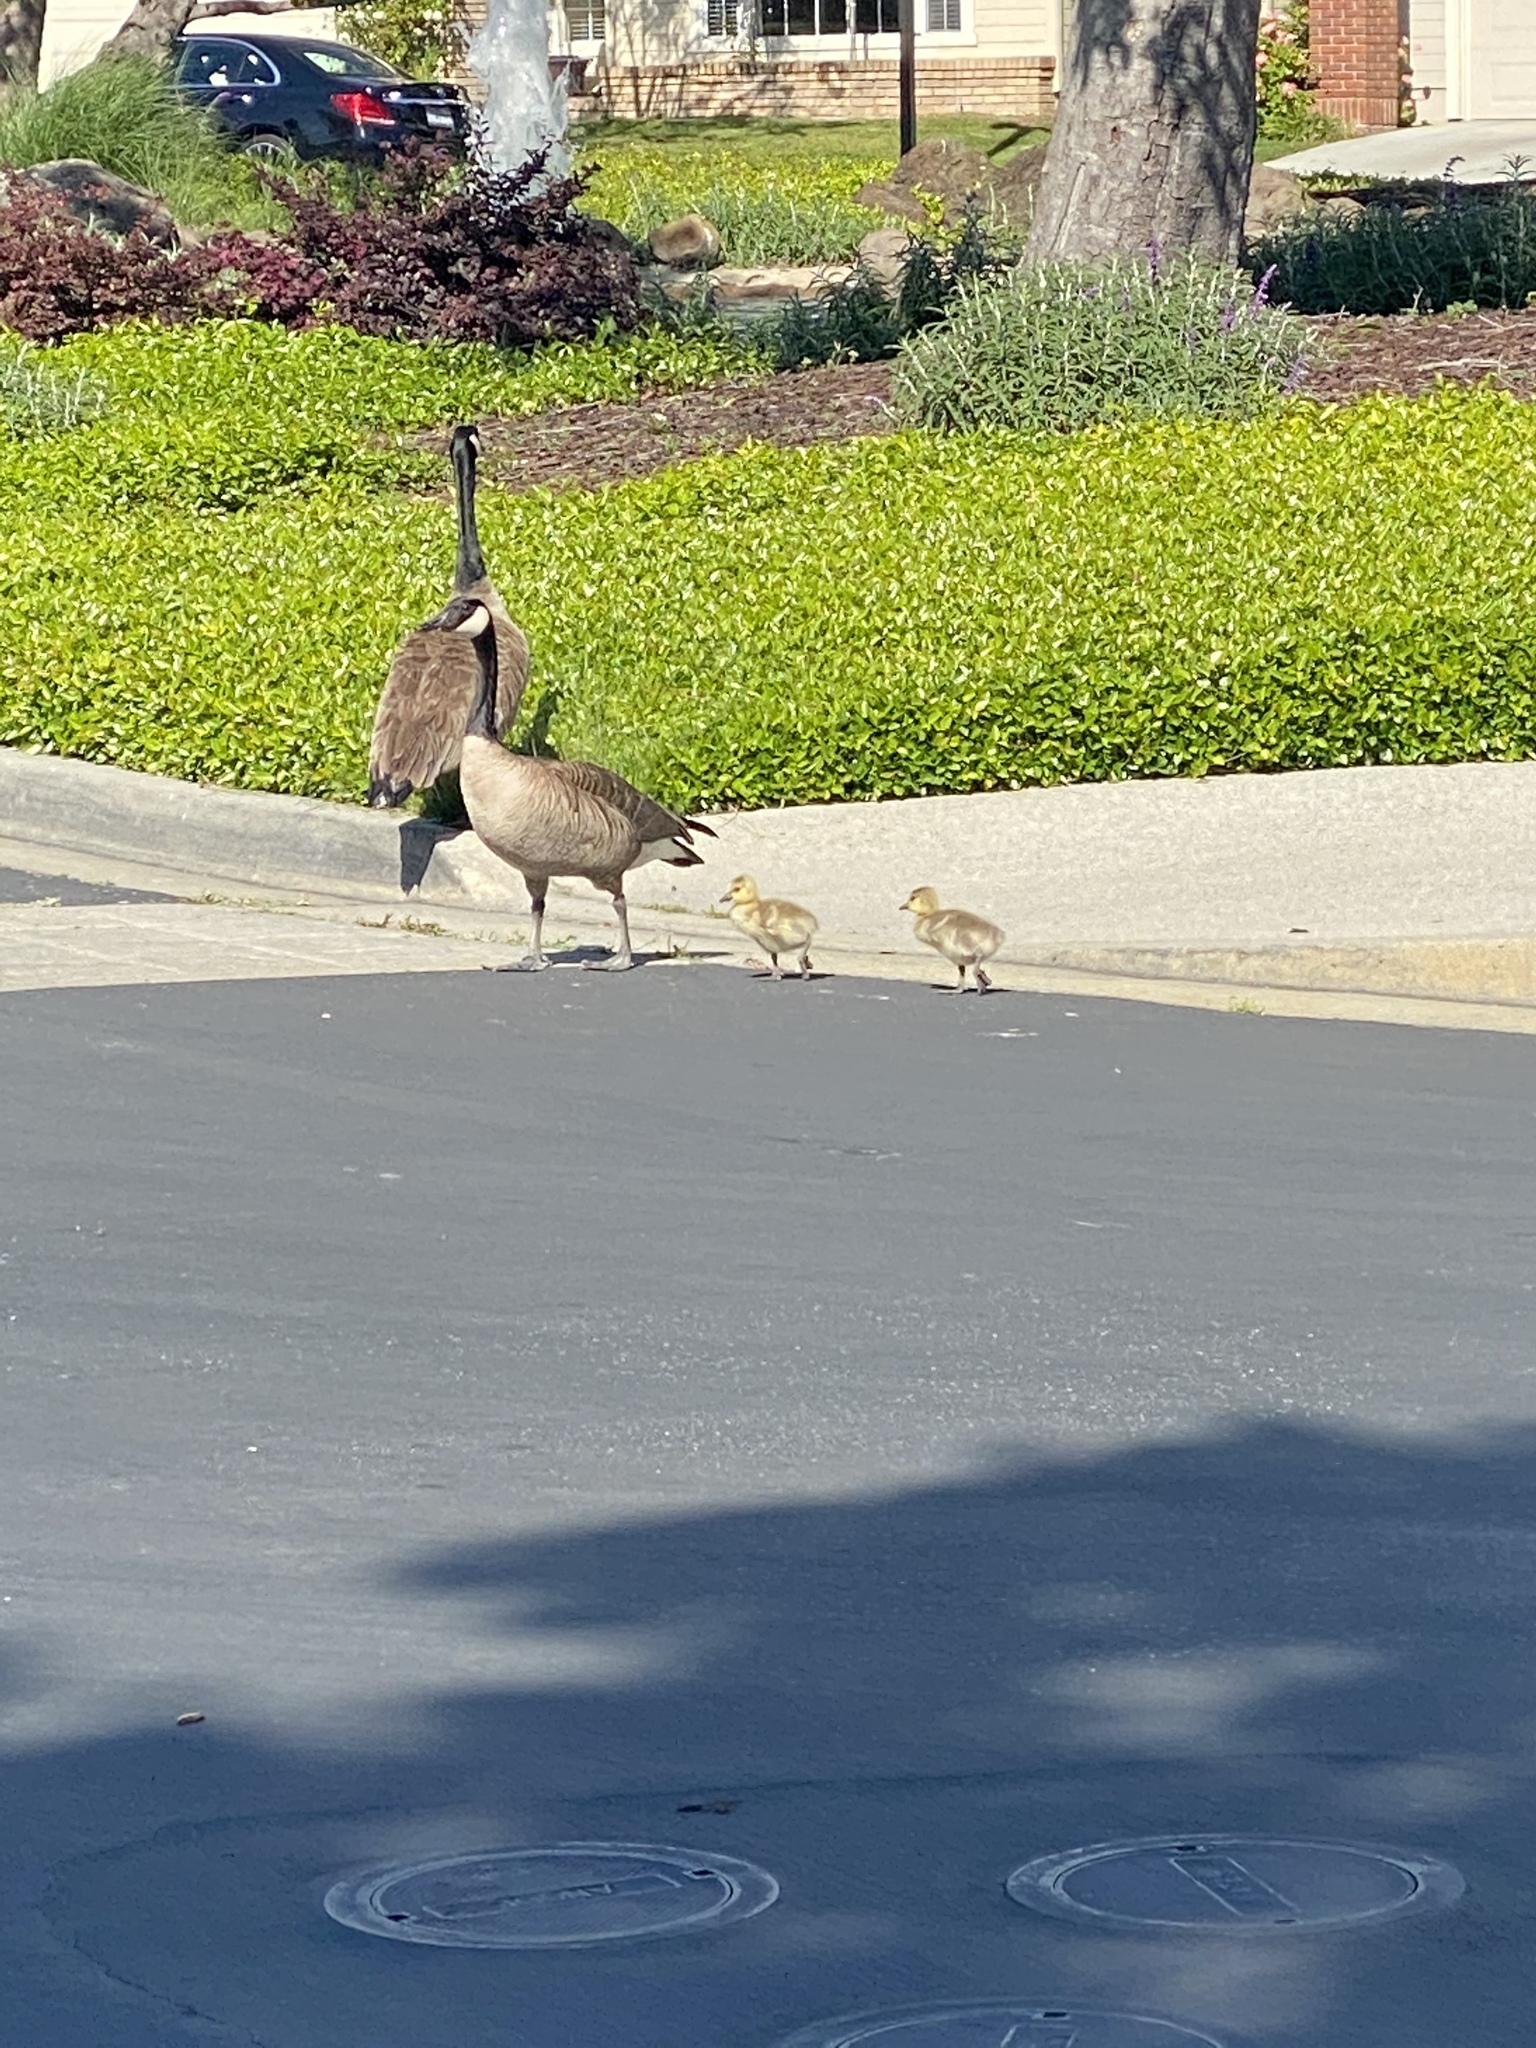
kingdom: Animalia
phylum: Chordata
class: Aves
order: Anseriformes
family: Anatidae
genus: Branta
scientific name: Branta canadensis
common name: Canada goose
